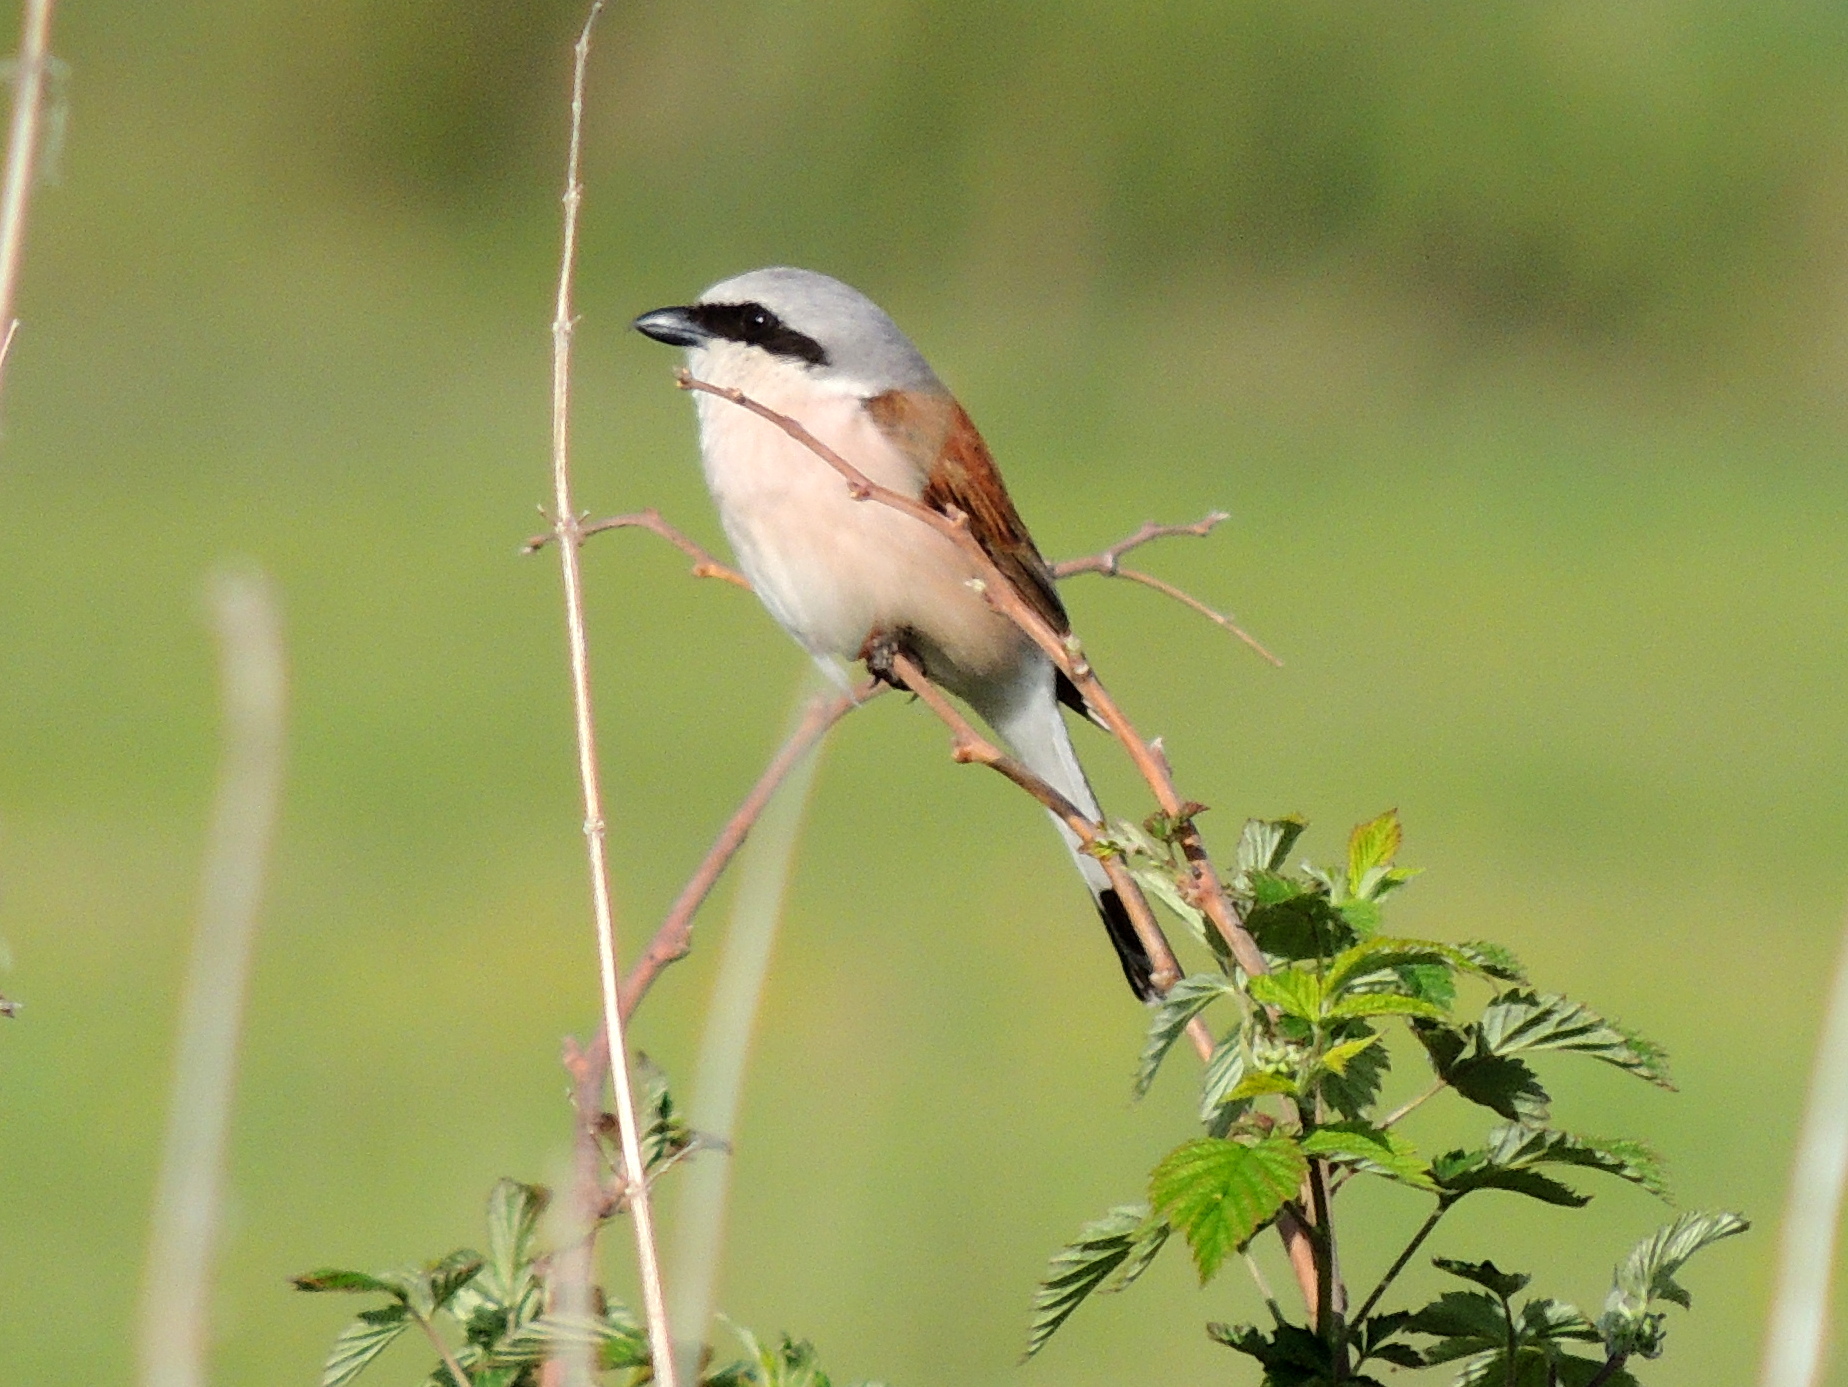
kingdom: Animalia
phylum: Chordata
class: Aves
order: Passeriformes
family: Laniidae
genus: Lanius
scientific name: Lanius collurio
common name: Red-backed shrike
